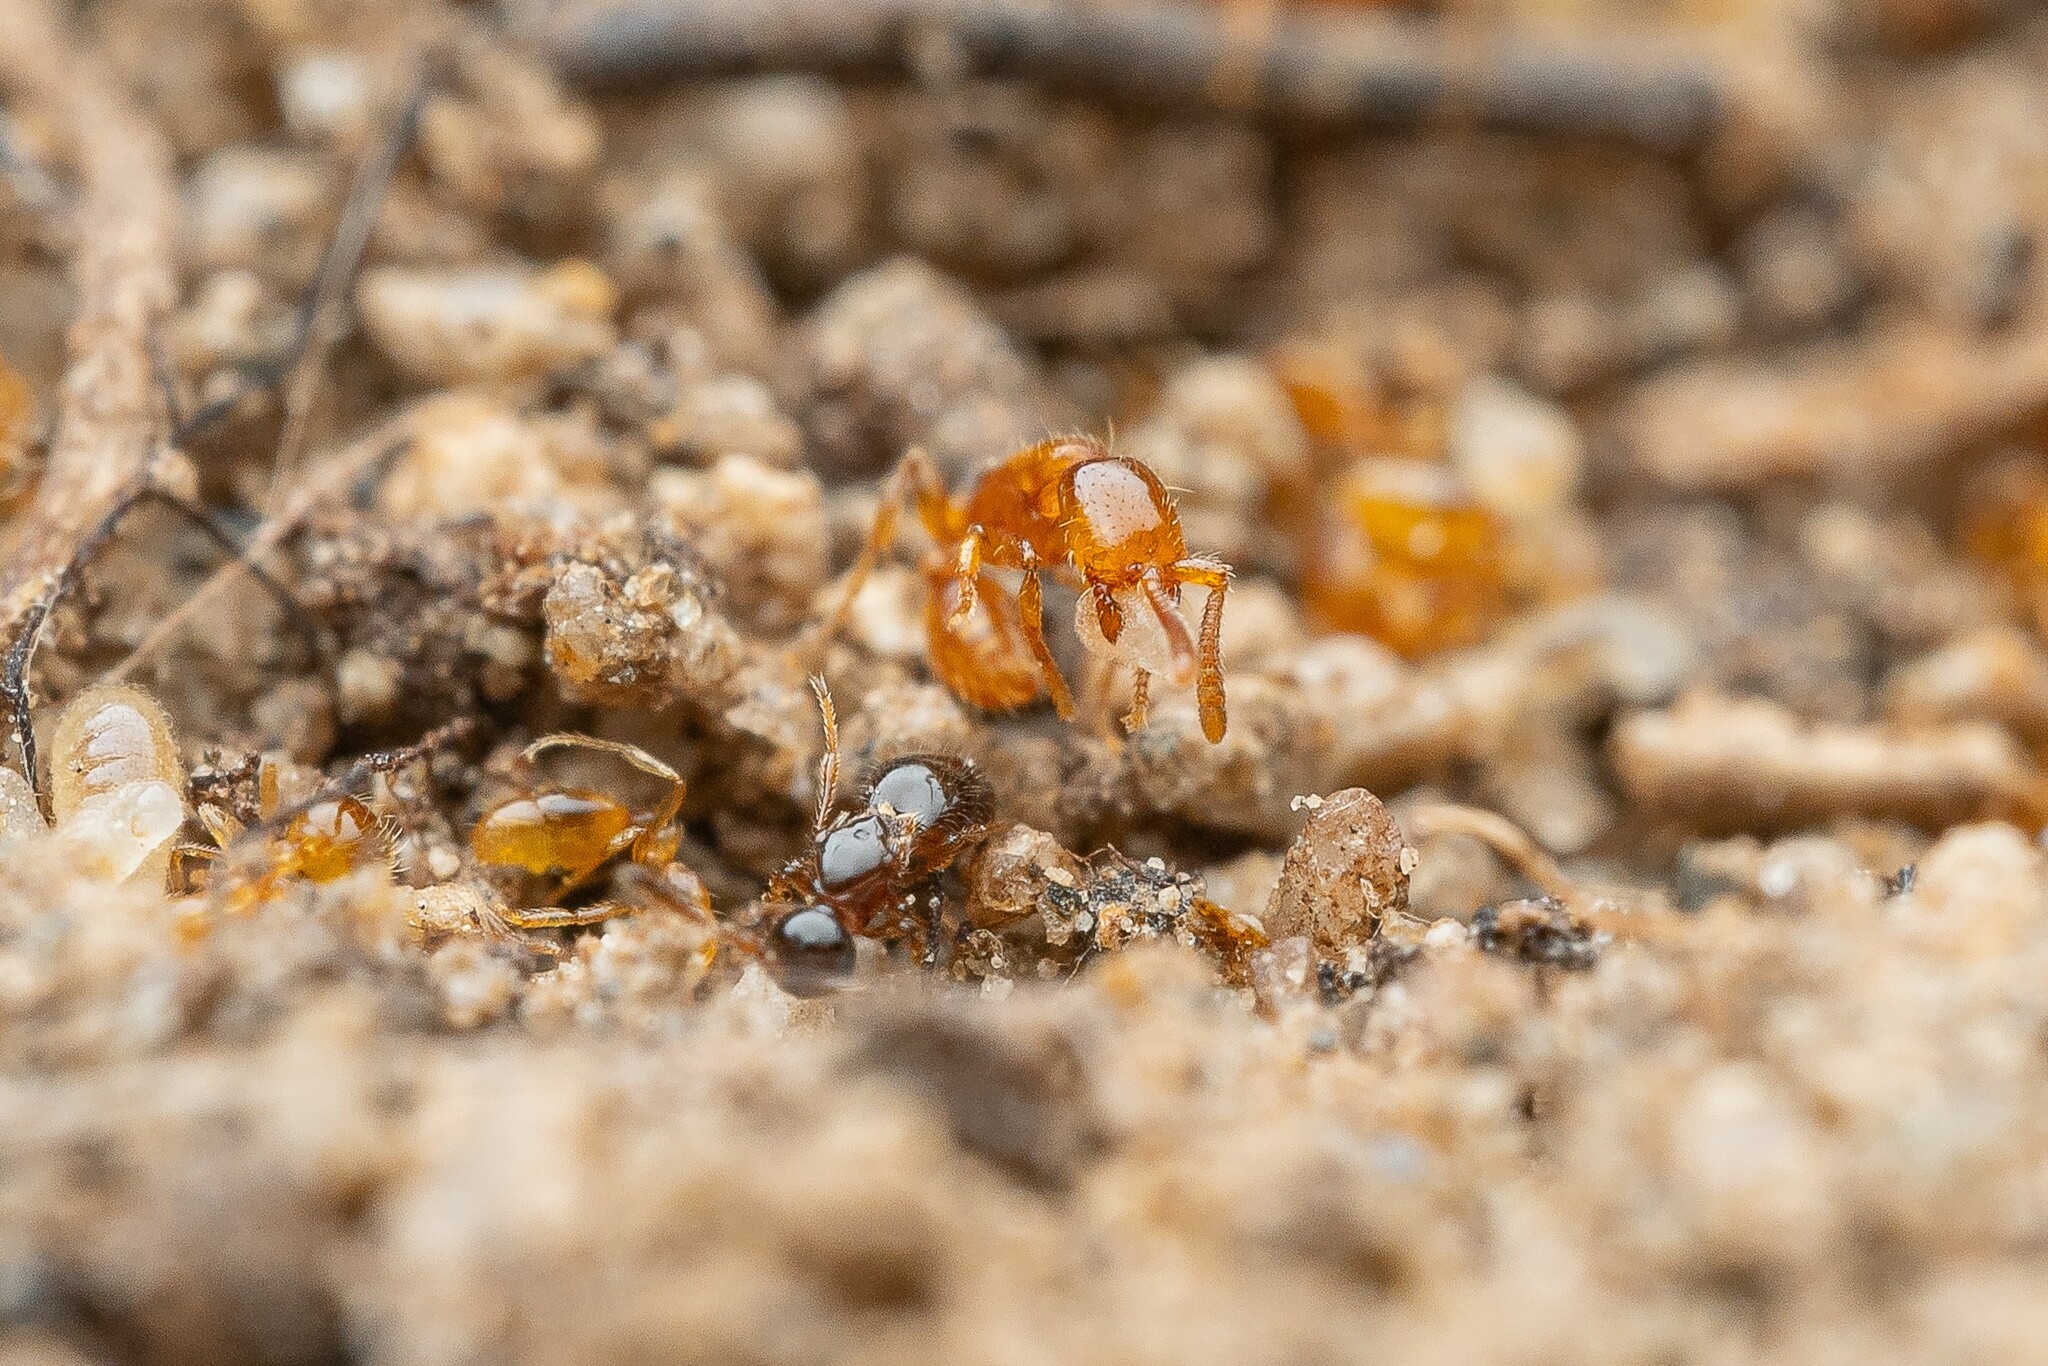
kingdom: Animalia
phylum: Arthropoda
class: Insecta
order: Hymenoptera
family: Diapriidae
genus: Auxopaedeutes
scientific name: Auxopaedeutes
